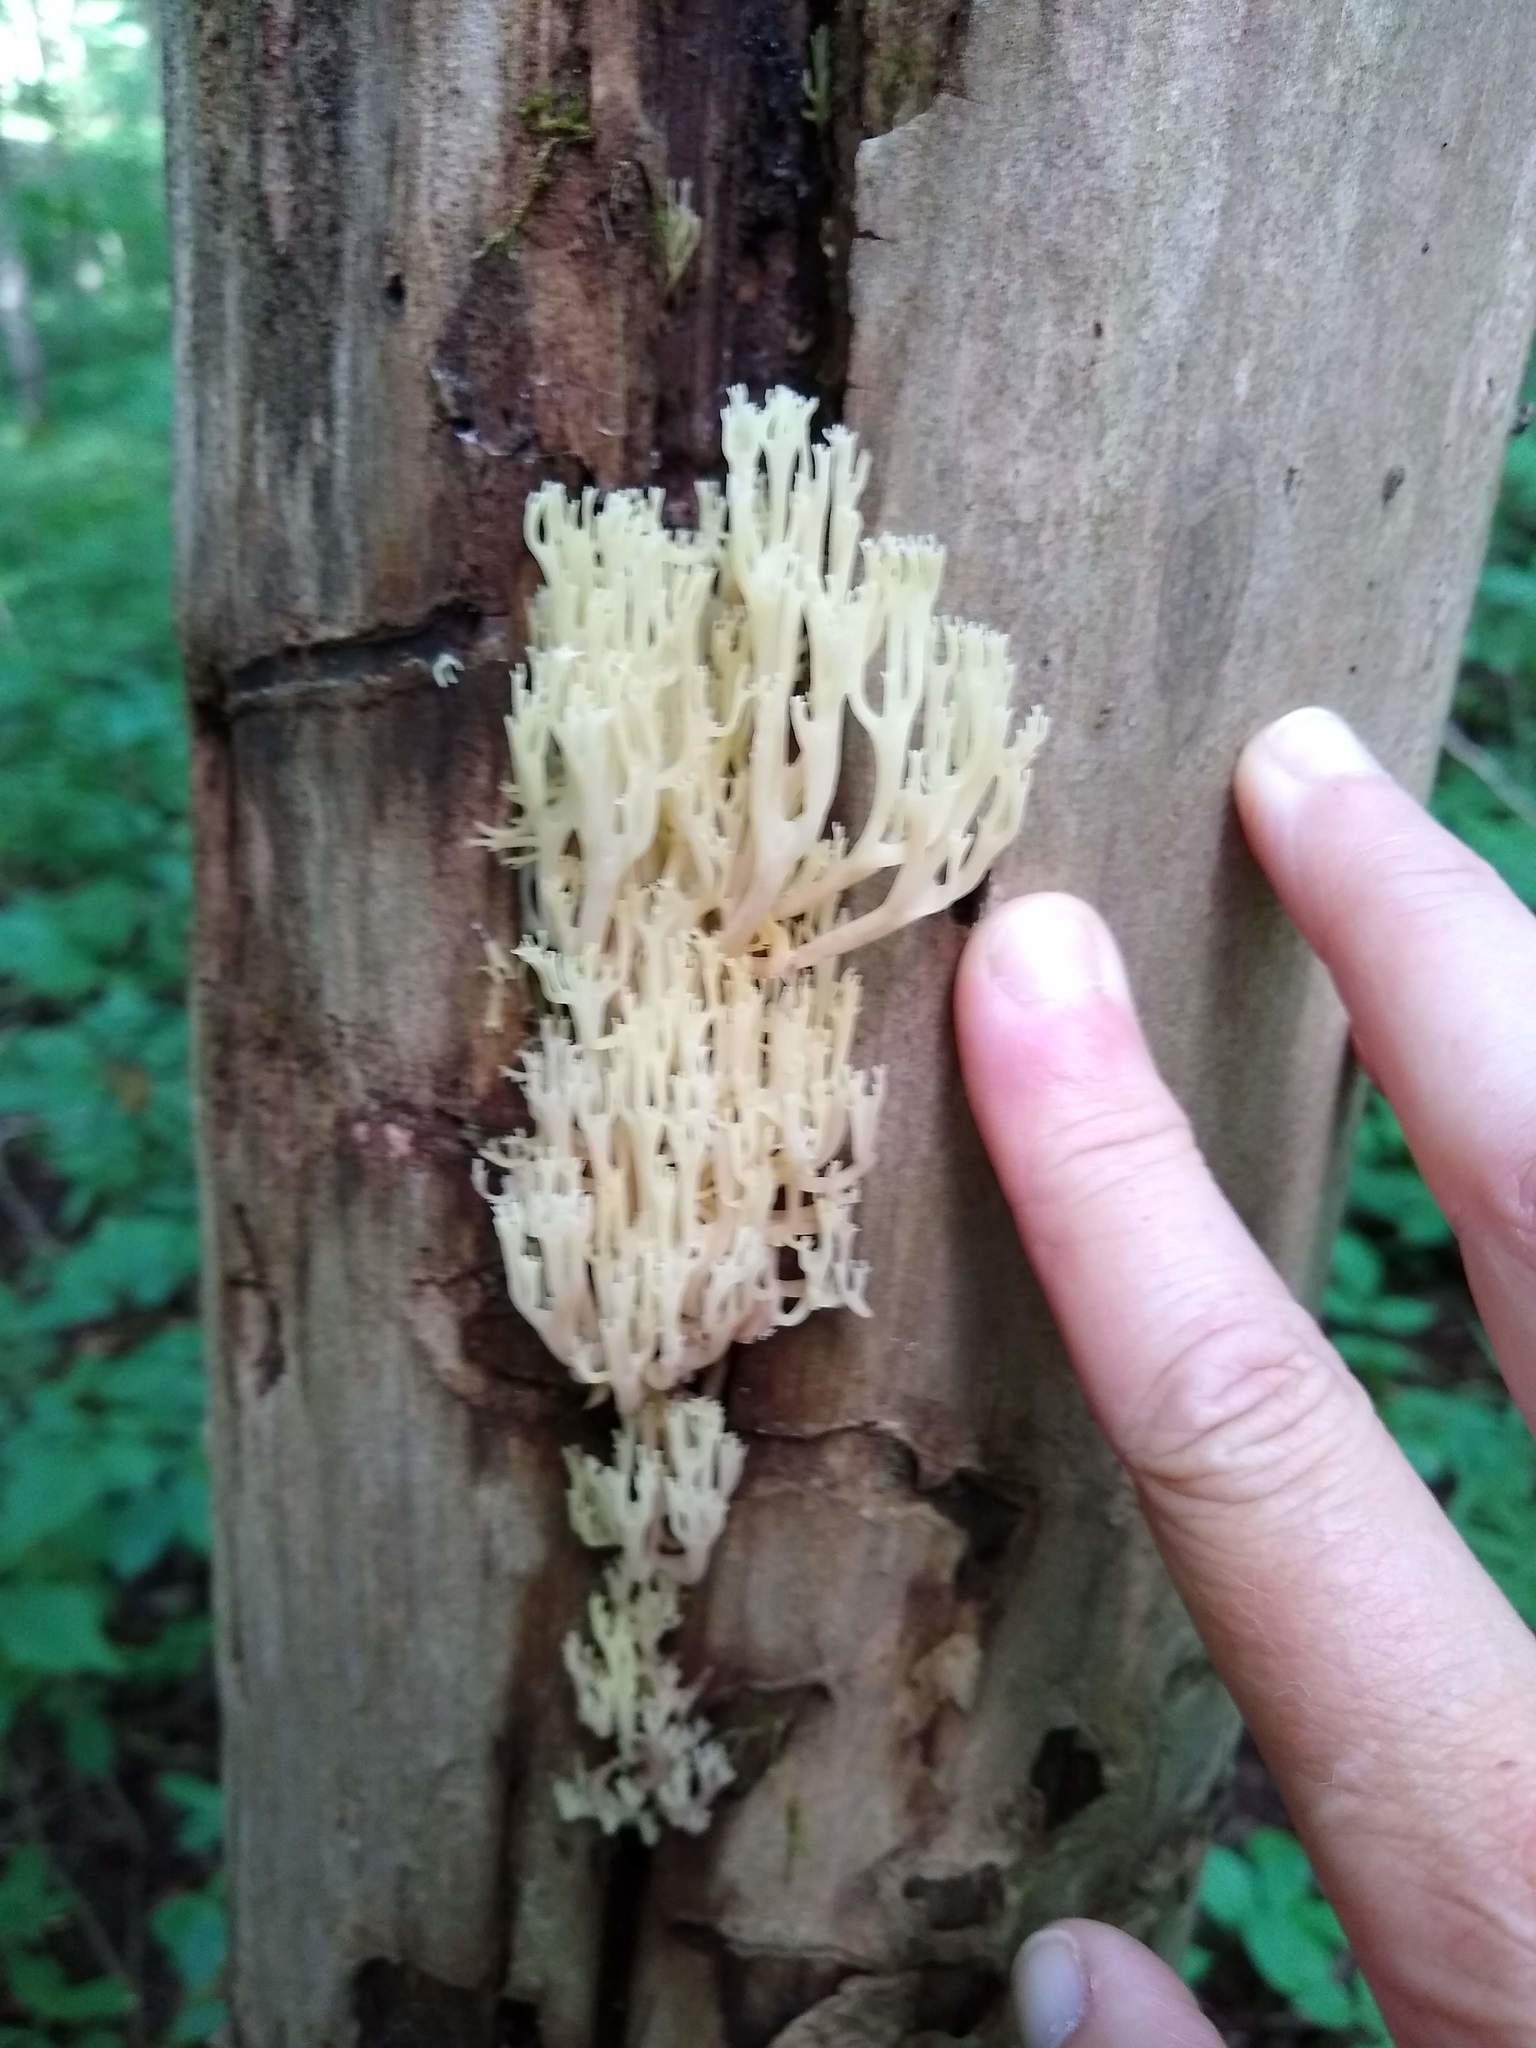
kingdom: Fungi
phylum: Basidiomycota
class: Agaricomycetes
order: Russulales
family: Auriscalpiaceae
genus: Artomyces
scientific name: Artomyces pyxidatus
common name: Crown-tipped coral fungus
